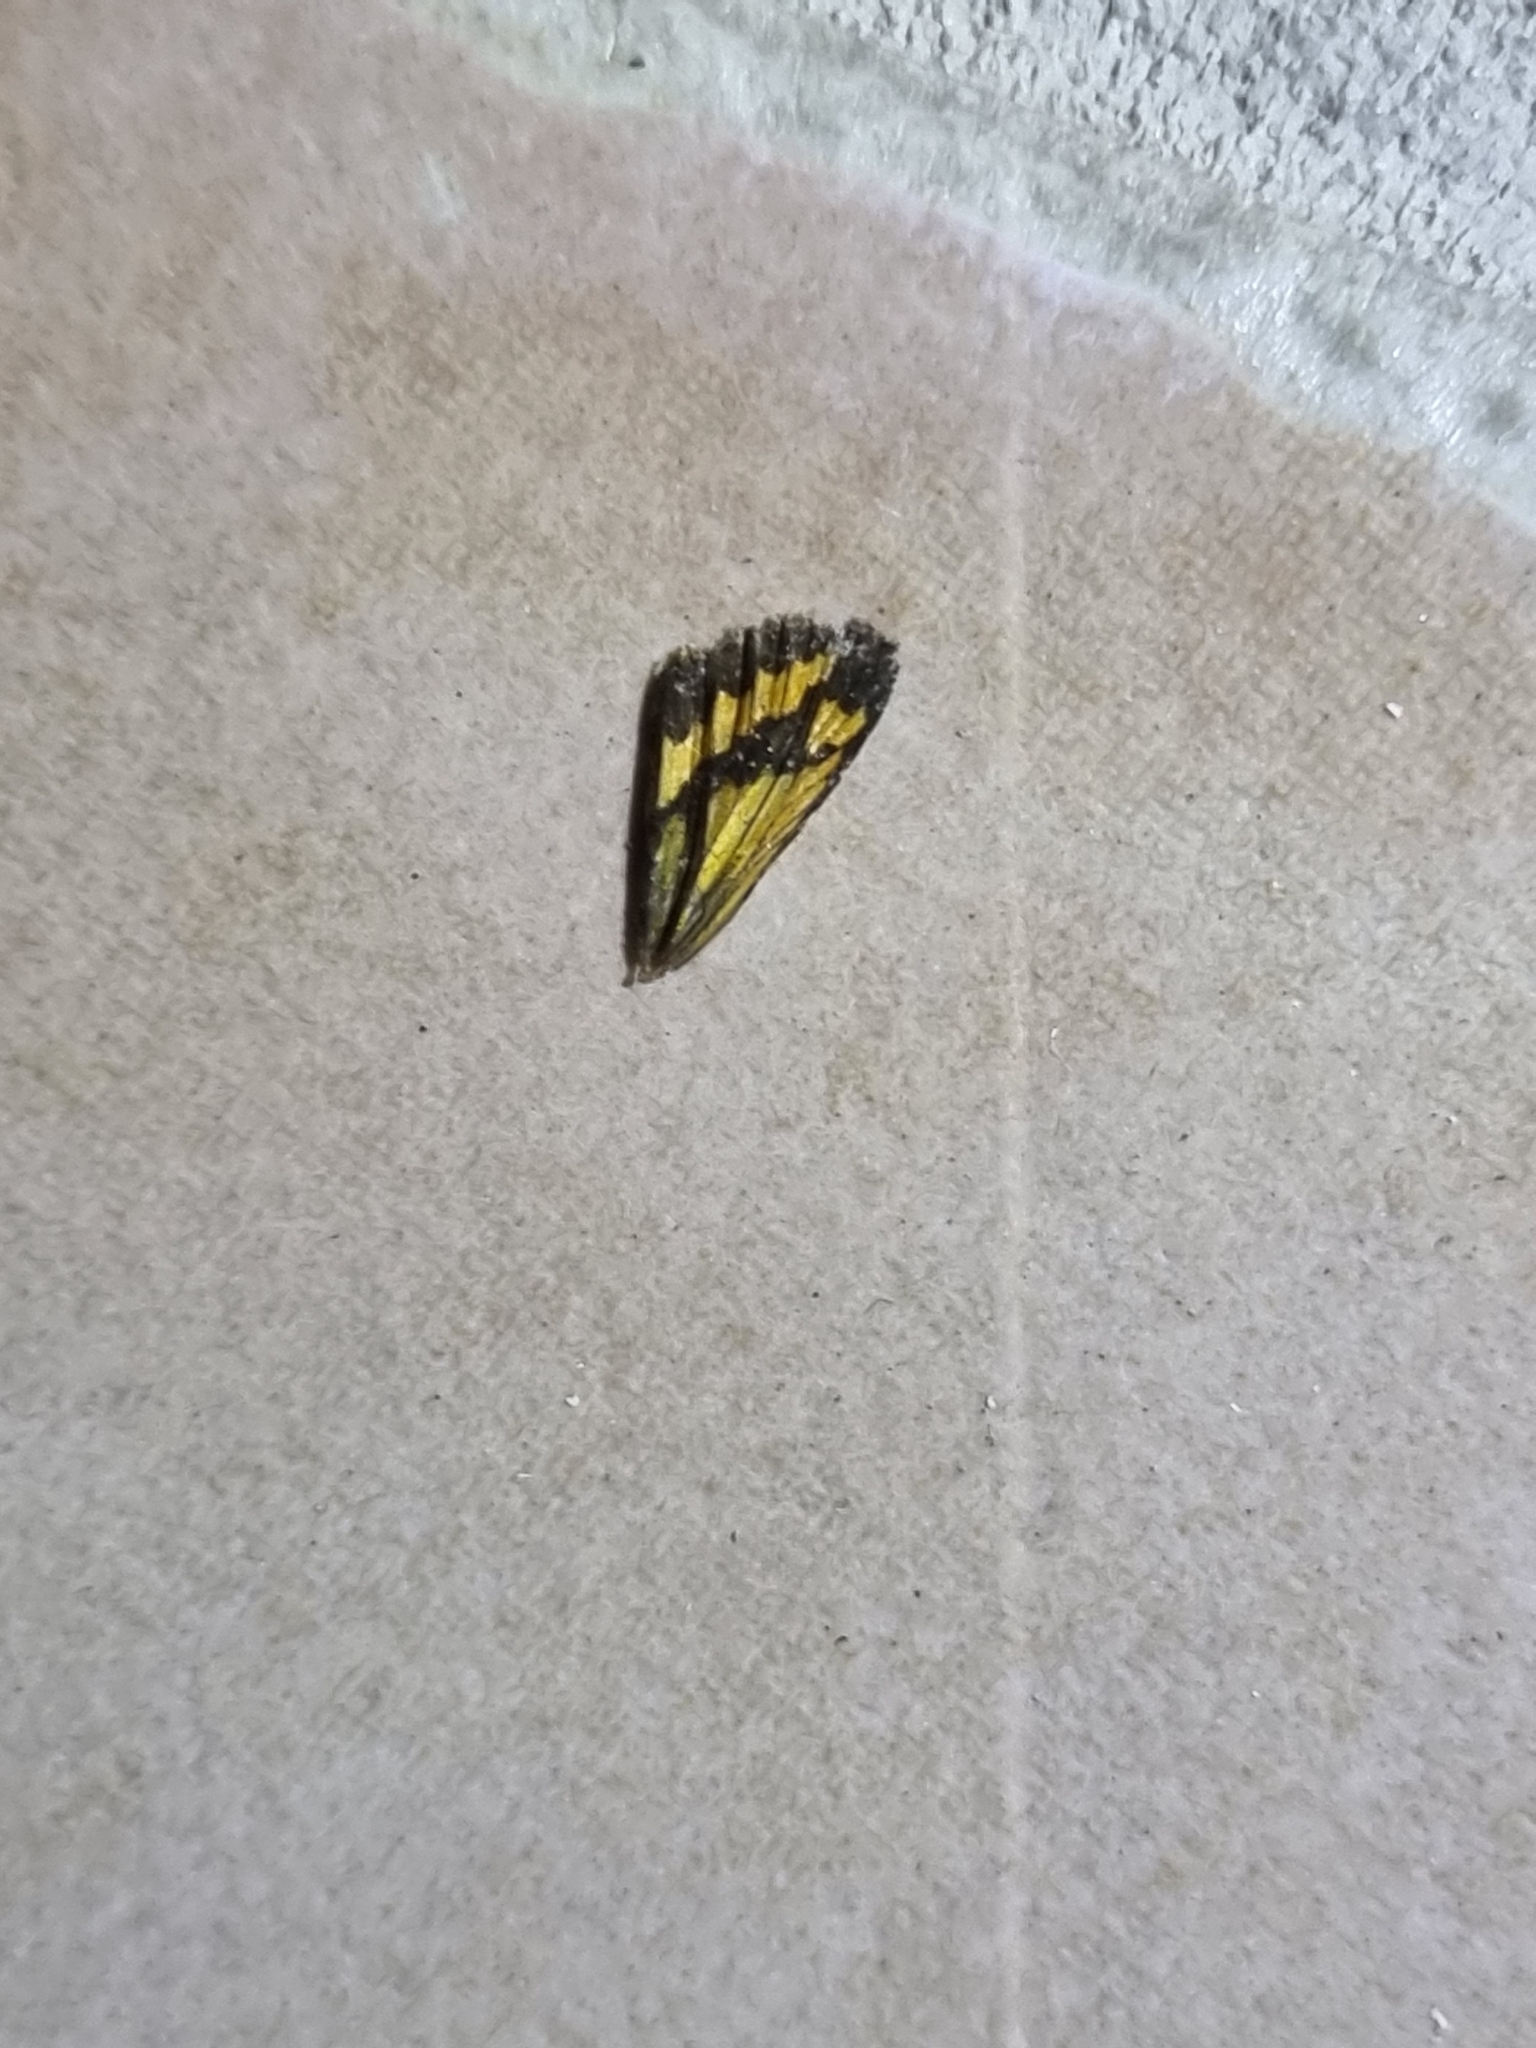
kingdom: Animalia
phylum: Arthropoda
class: Insecta
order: Lepidoptera
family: Hesperiidae
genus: Suniana
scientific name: Suniana sunias
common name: Wide-brand grass-dart
